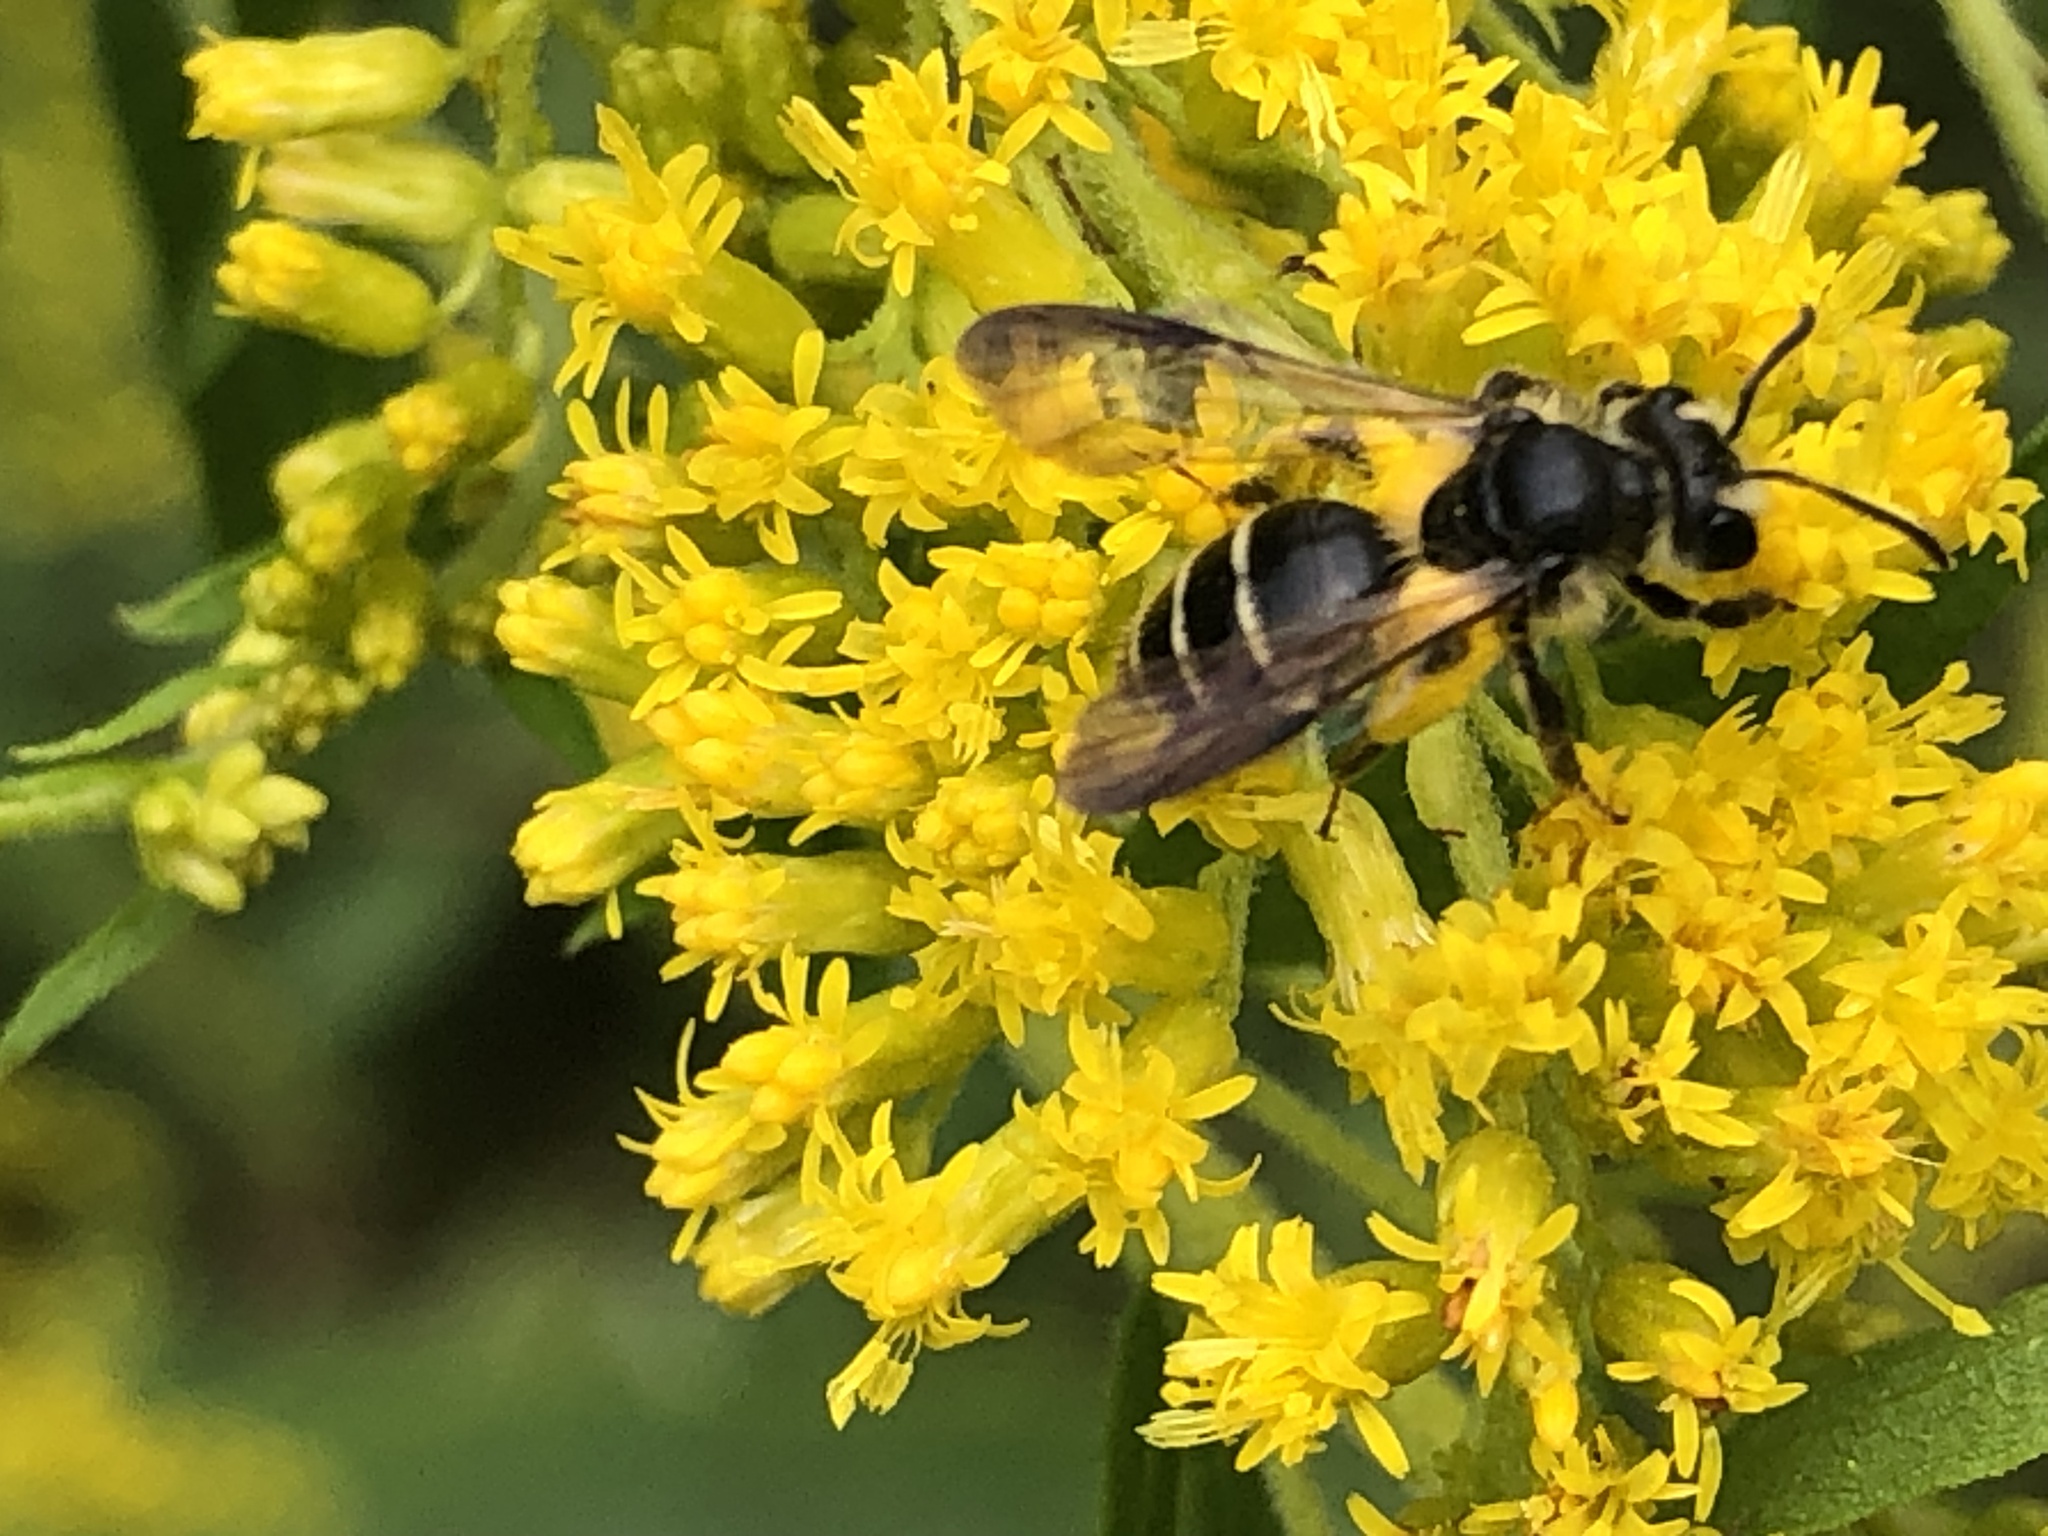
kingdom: Animalia
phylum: Arthropoda
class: Insecta
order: Hymenoptera
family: Andrenidae
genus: Andrena
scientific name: Andrena nubecula
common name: Cloudy-winged mining bee
